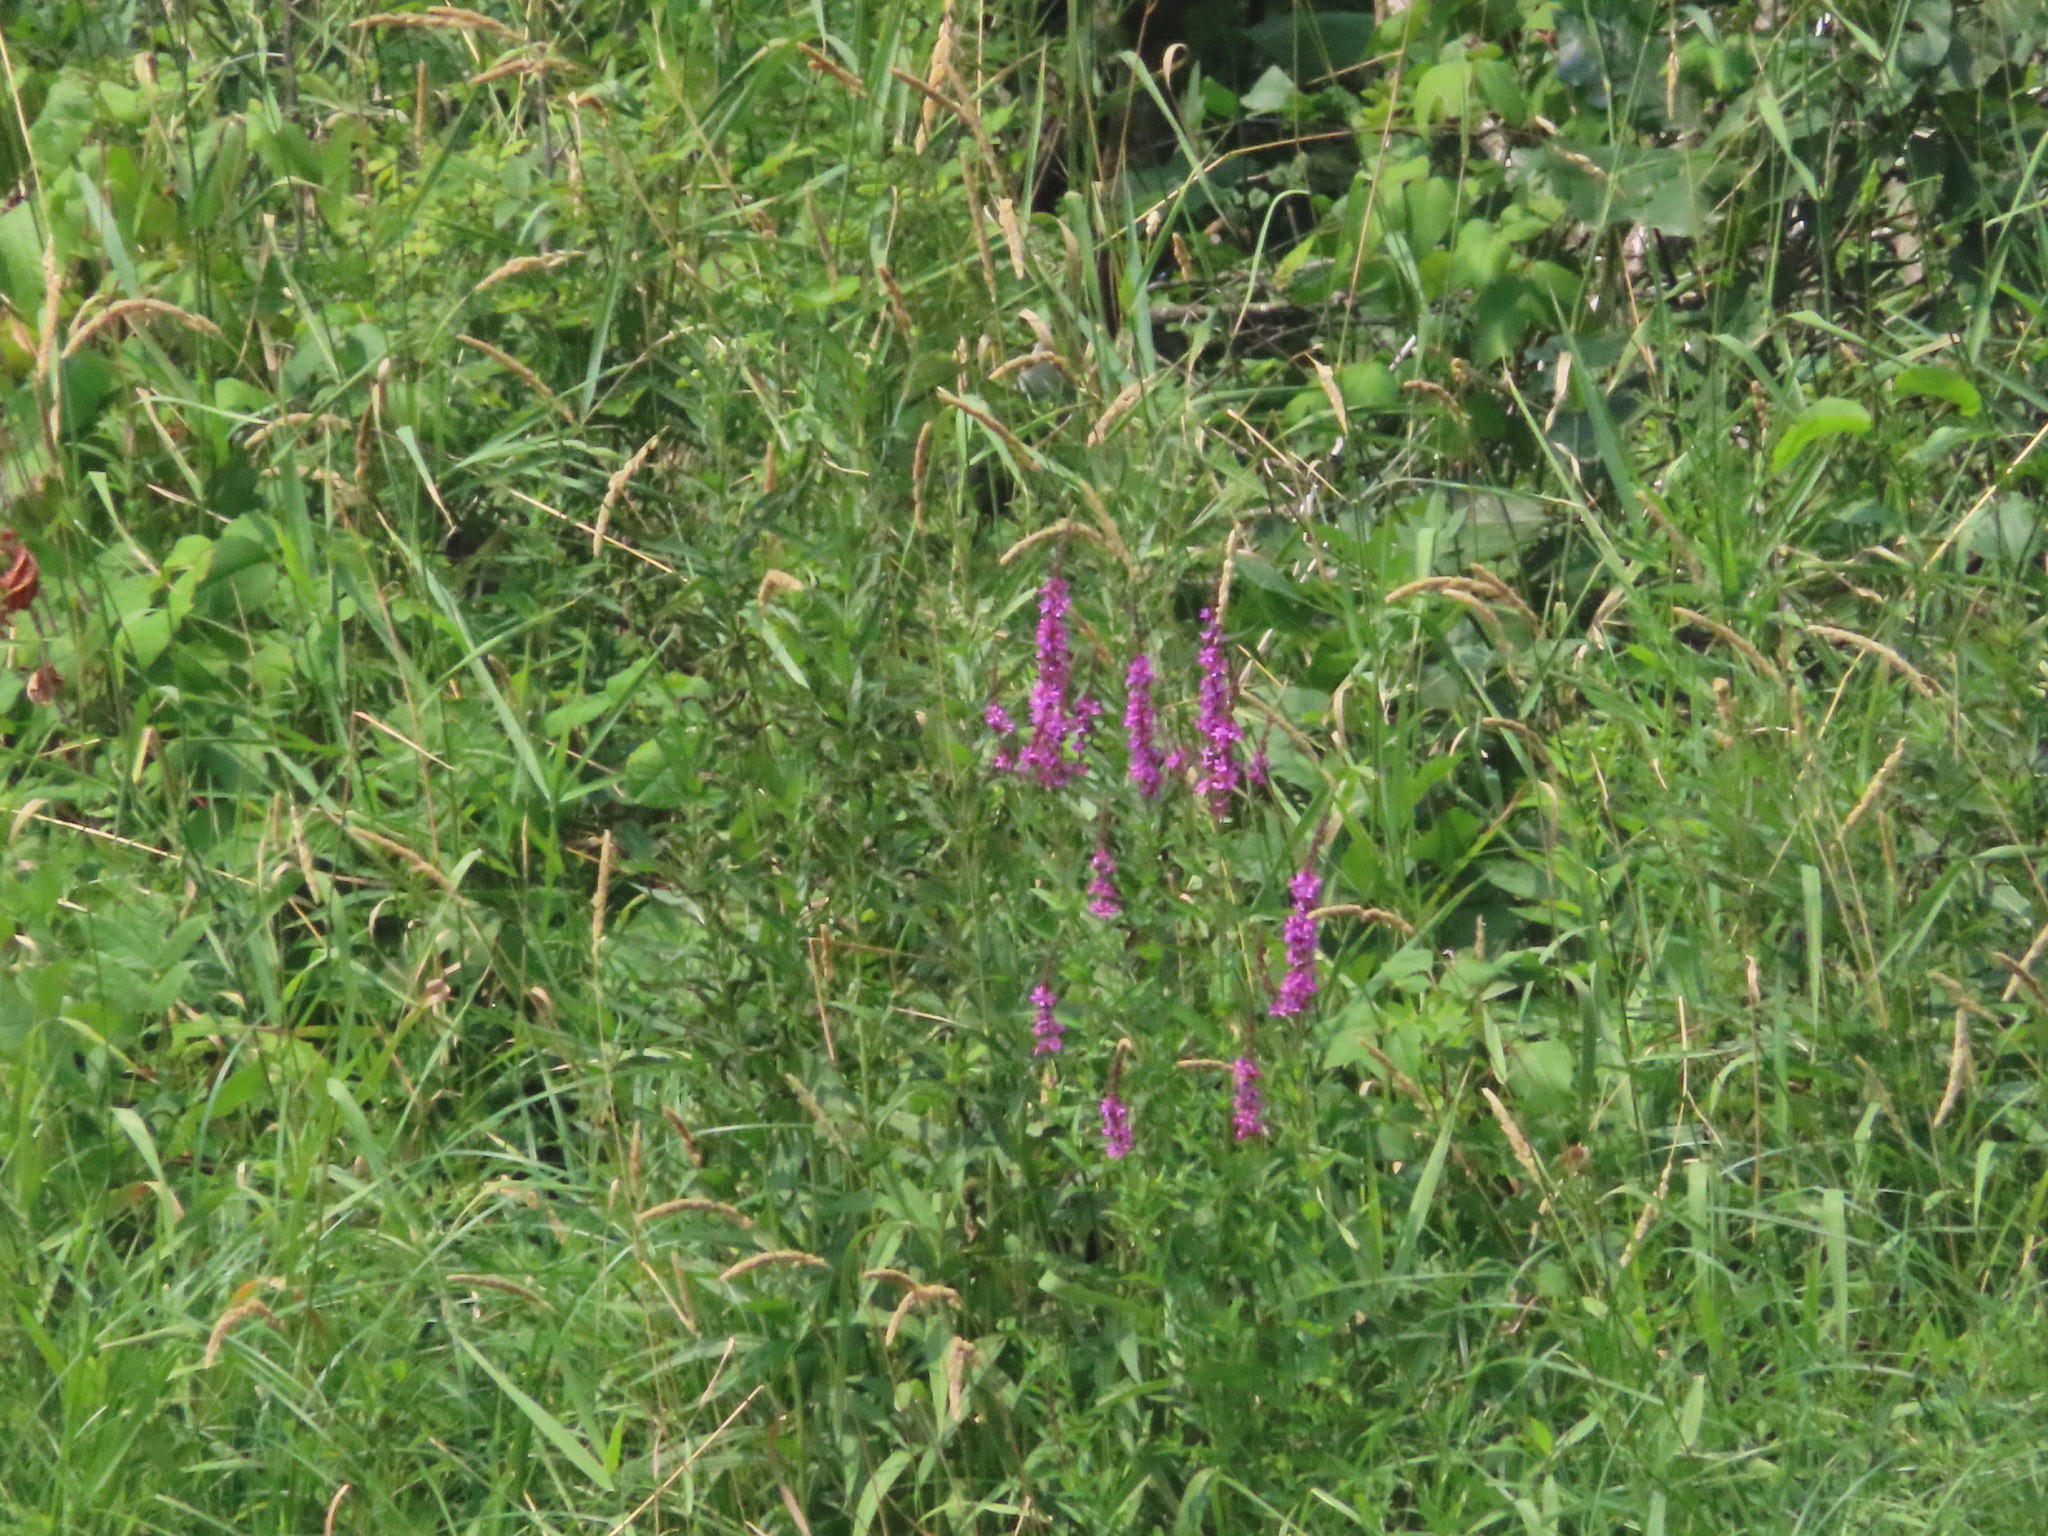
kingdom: Plantae
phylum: Tracheophyta
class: Magnoliopsida
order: Myrtales
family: Lythraceae
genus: Lythrum
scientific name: Lythrum salicaria
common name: Purple loosestrife
